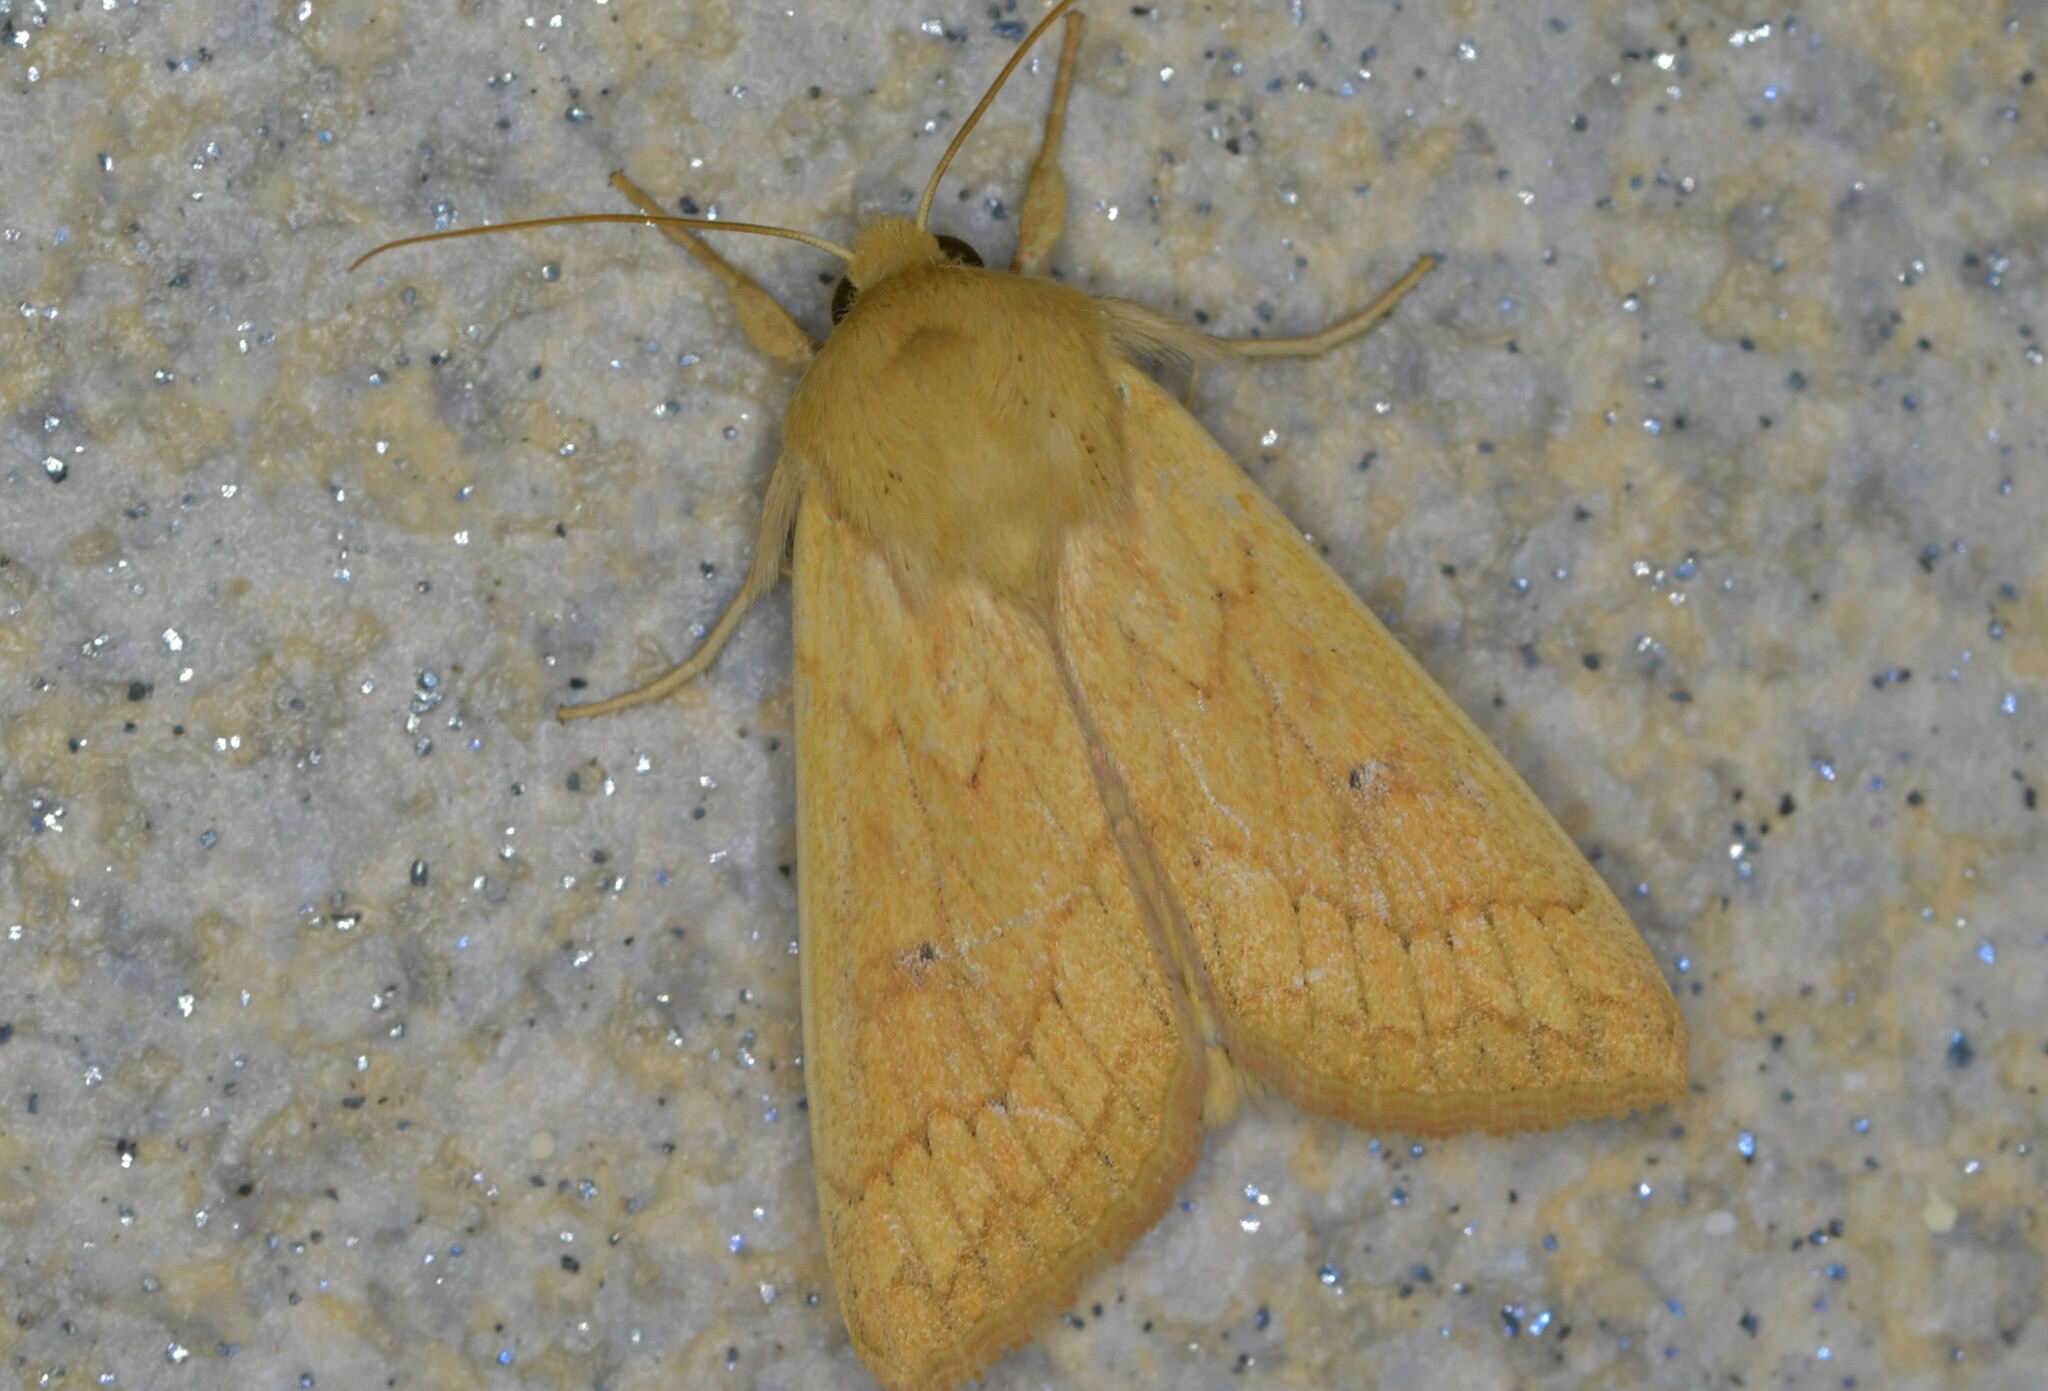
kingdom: Animalia
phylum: Arthropoda
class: Insecta
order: Lepidoptera
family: Noctuidae
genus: Mythimna
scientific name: Mythimna vitellina
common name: Delicate
